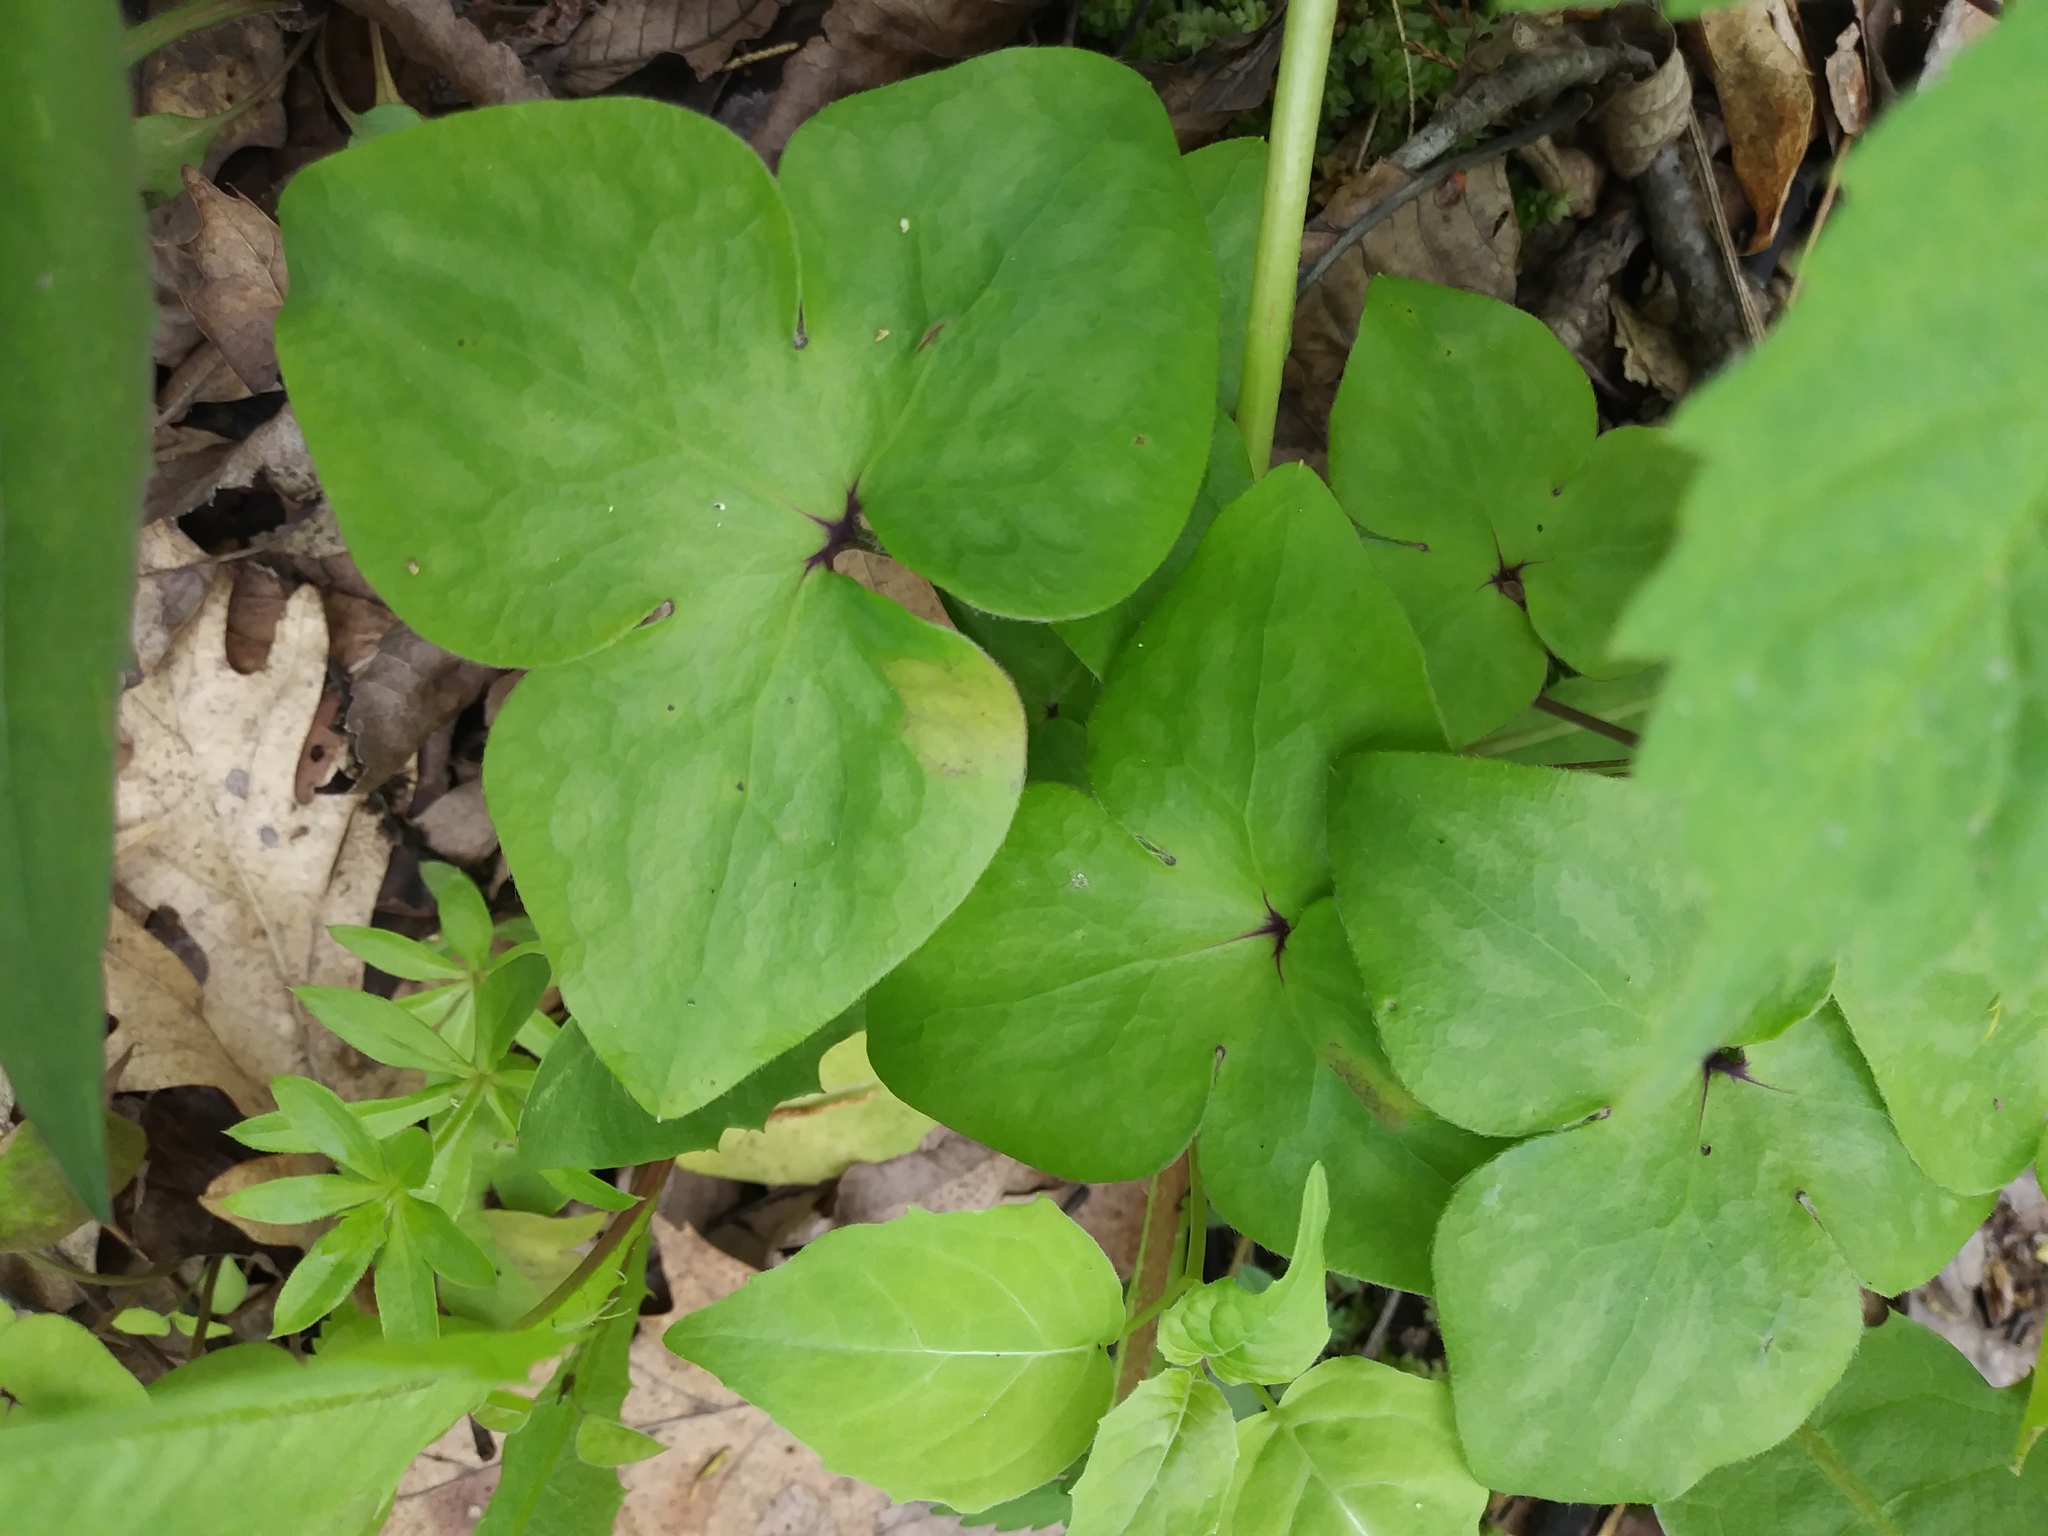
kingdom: Plantae
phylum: Tracheophyta
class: Magnoliopsida
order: Ranunculales
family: Ranunculaceae
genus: Hepatica
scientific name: Hepatica acutiloba
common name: Sharp-lobed hepatica
